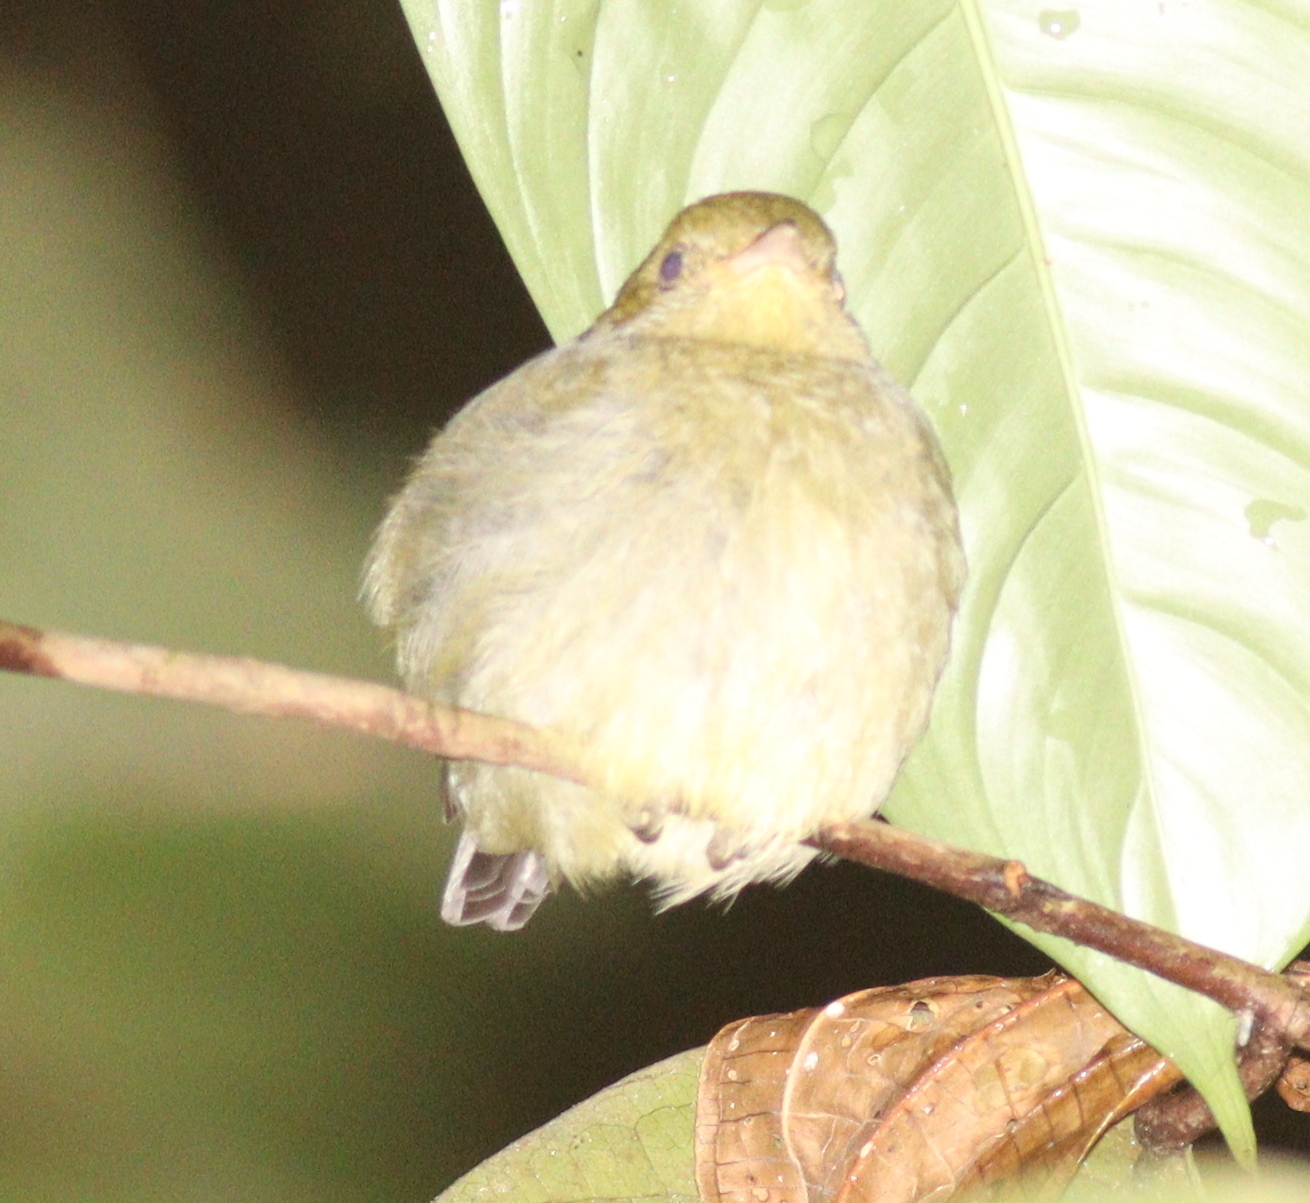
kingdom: Animalia
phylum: Chordata
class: Aves
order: Passeriformes
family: Pipridae
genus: Pipra
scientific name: Pipra mentalis
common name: Red-capped manakin
